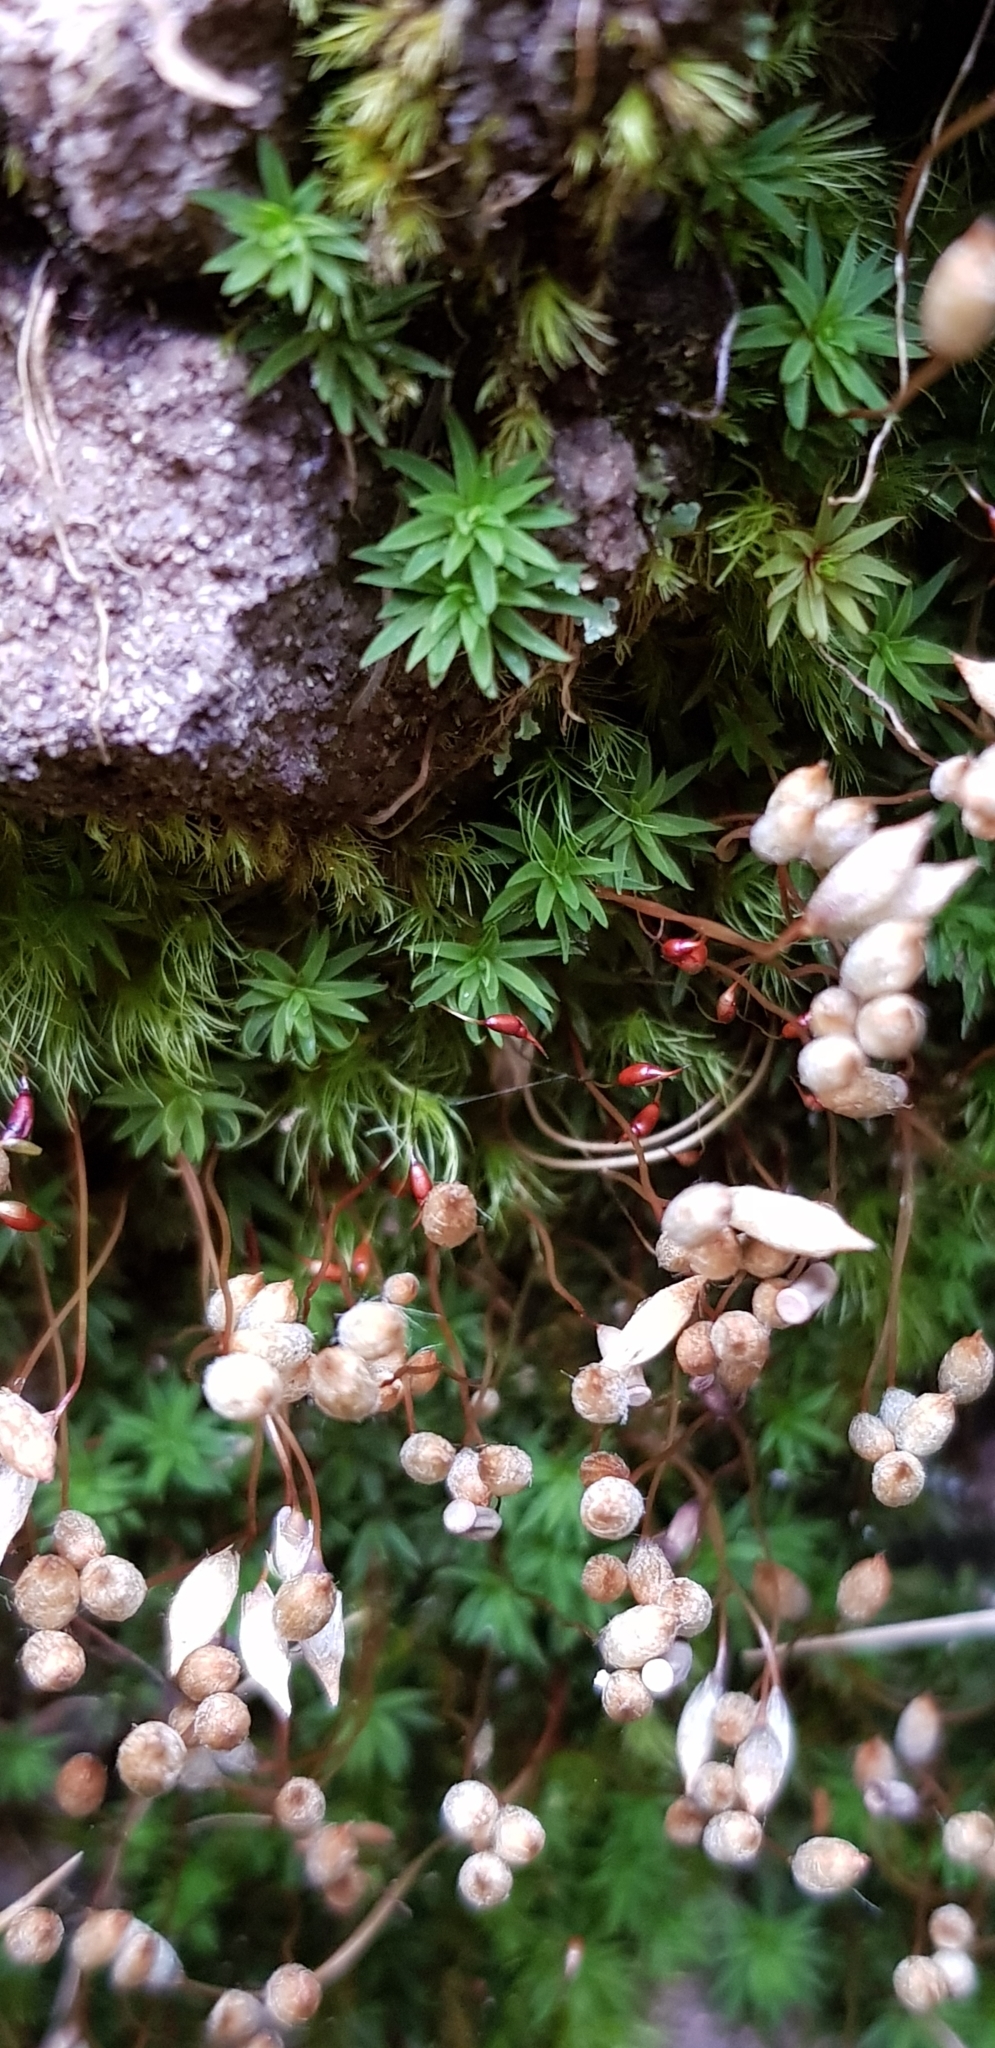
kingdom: Plantae
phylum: Bryophyta
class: Bryopsida
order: Dicranales
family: Dicranellaceae
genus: Dicranella
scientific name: Dicranella heteromalla
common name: Silky forklet moss
